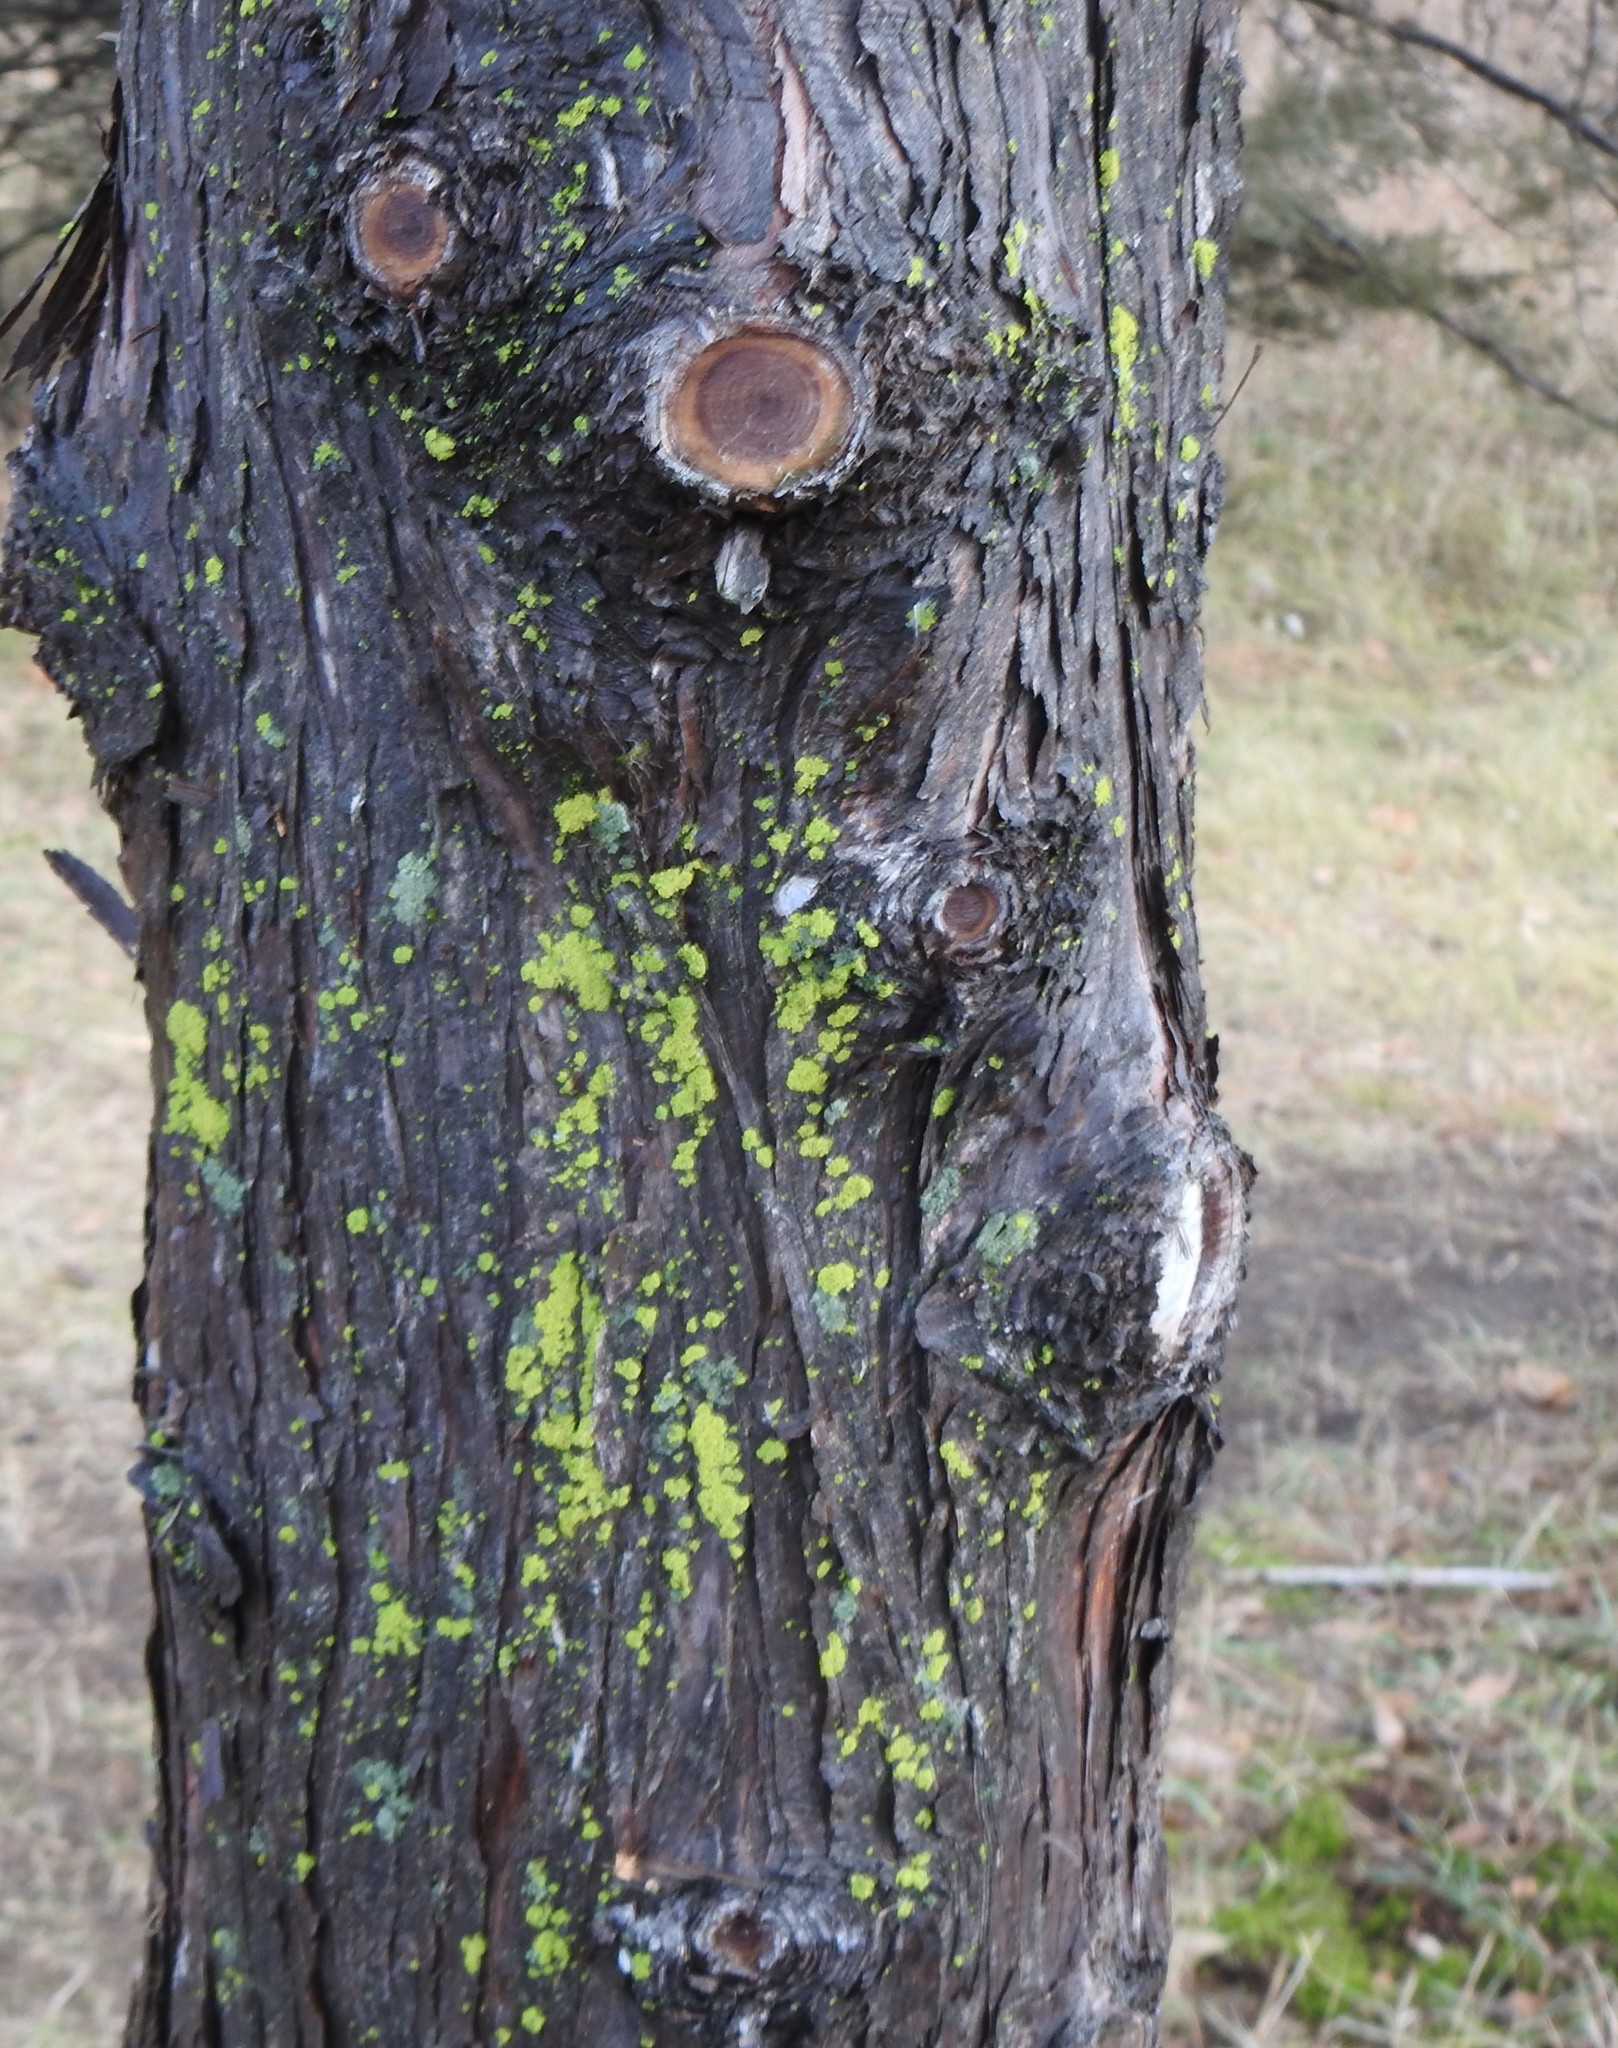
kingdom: Fungi
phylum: Ascomycota
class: Candelariomycetes
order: Candelariales
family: Candelariaceae
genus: Candelaria
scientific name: Candelaria concolor
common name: Candleflame lichen
